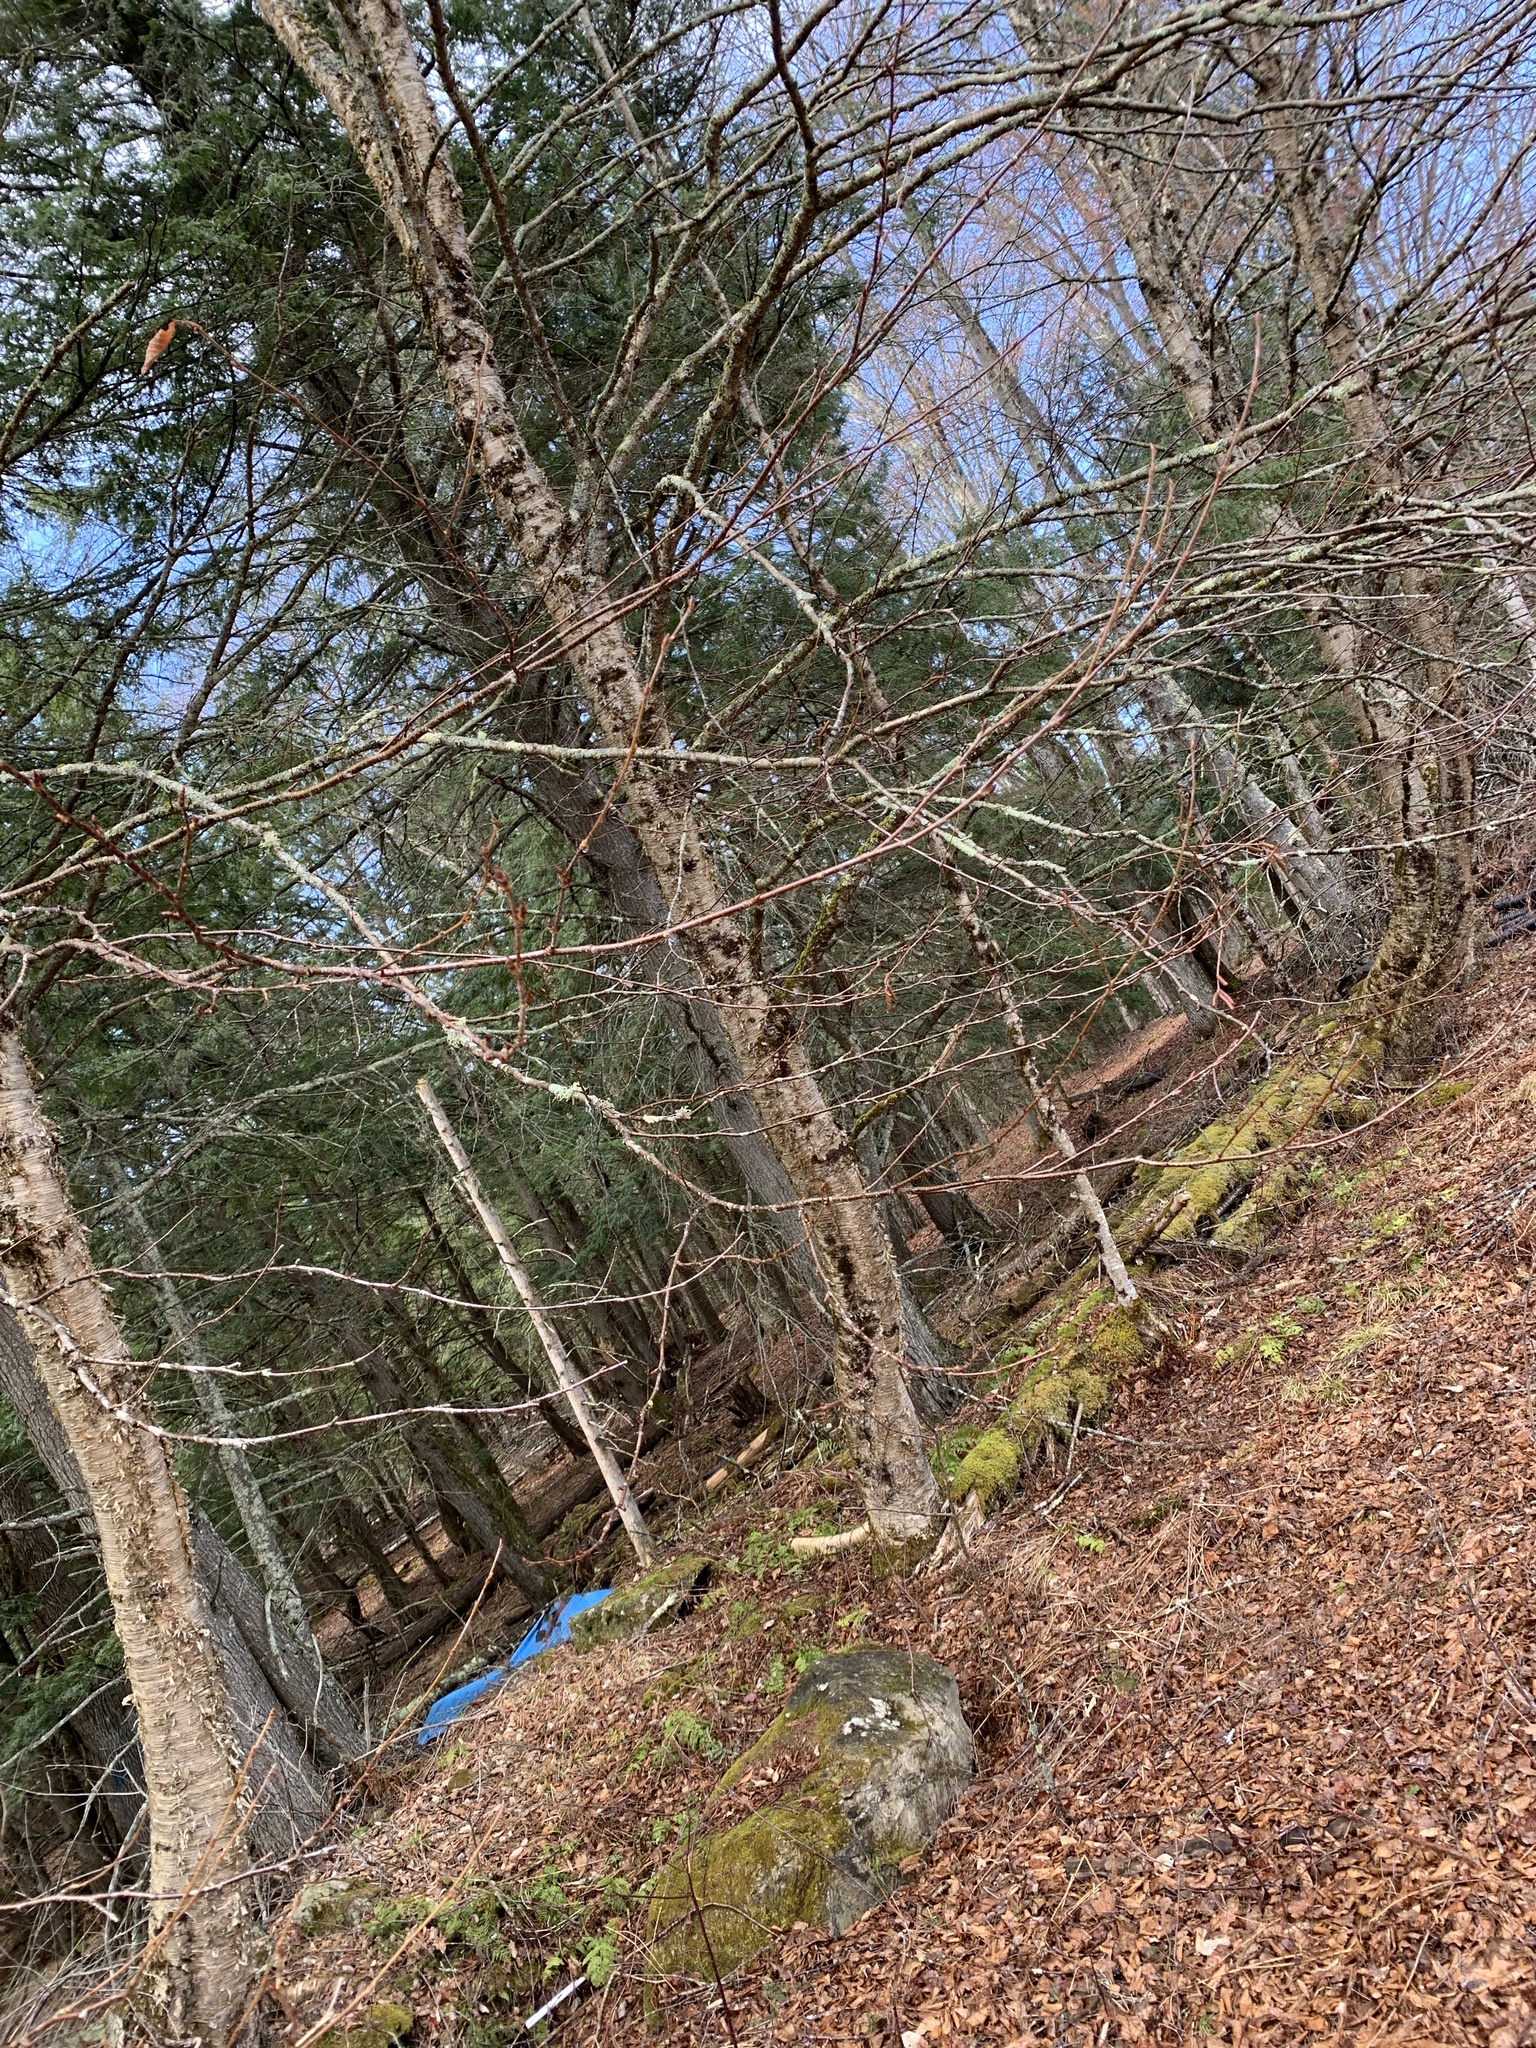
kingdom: Plantae
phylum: Tracheophyta
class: Magnoliopsida
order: Fagales
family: Betulaceae
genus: Betula
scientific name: Betula alleghaniensis
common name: Yellow birch
